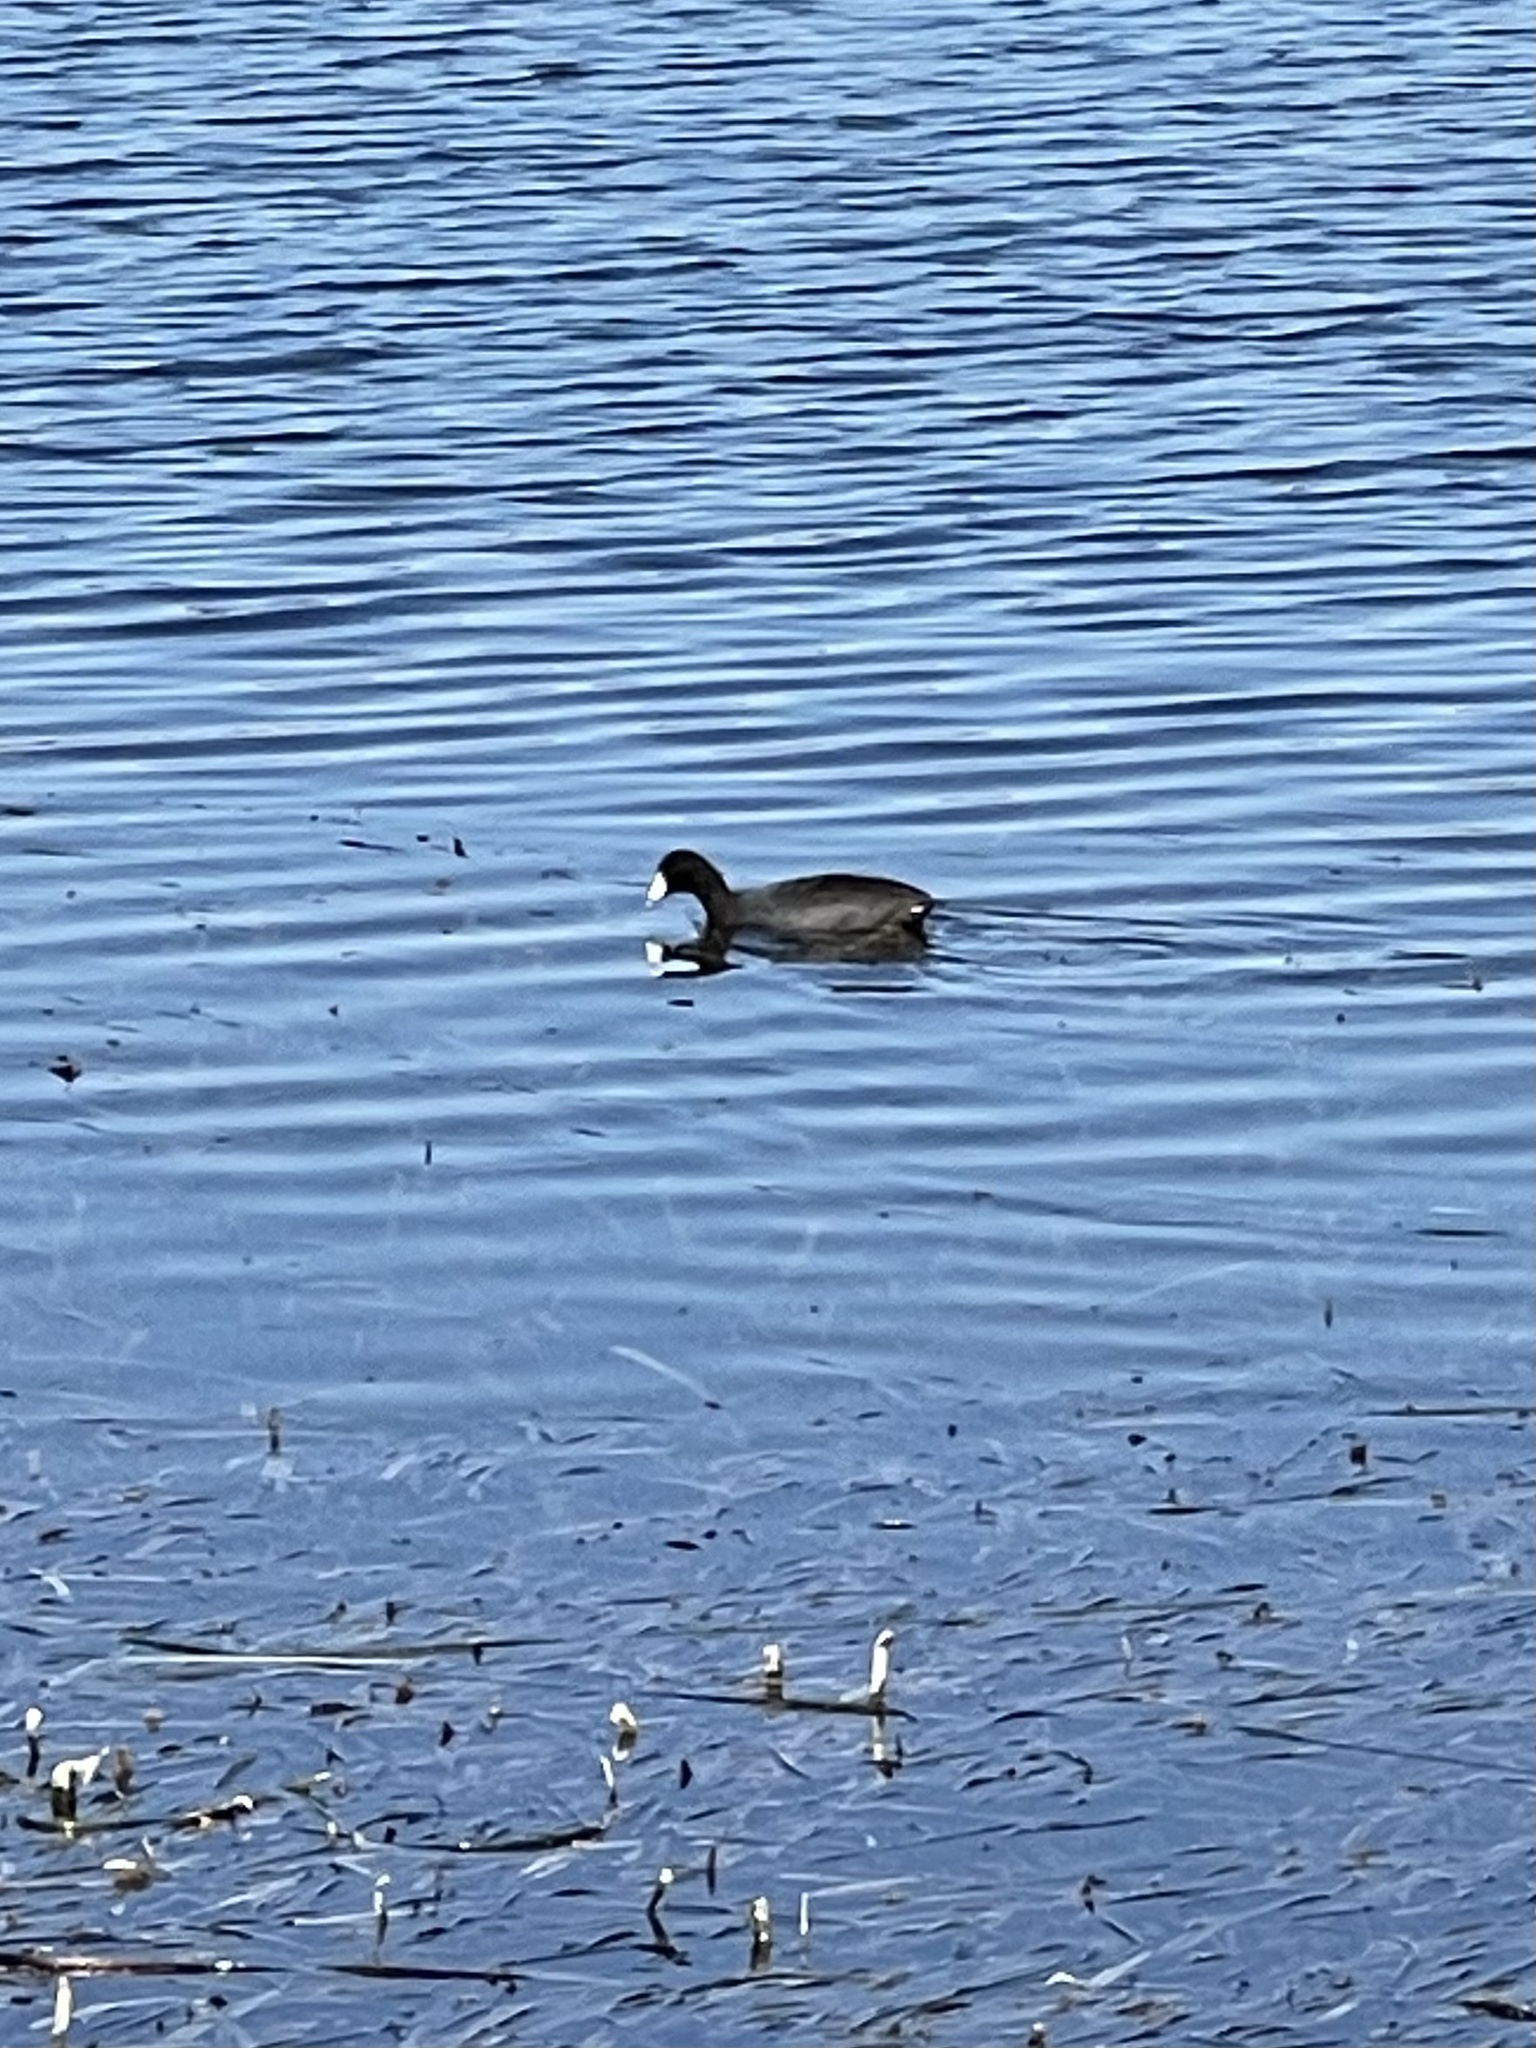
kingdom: Animalia
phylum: Chordata
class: Aves
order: Gruiformes
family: Rallidae
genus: Fulica
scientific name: Fulica americana
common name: American coot
